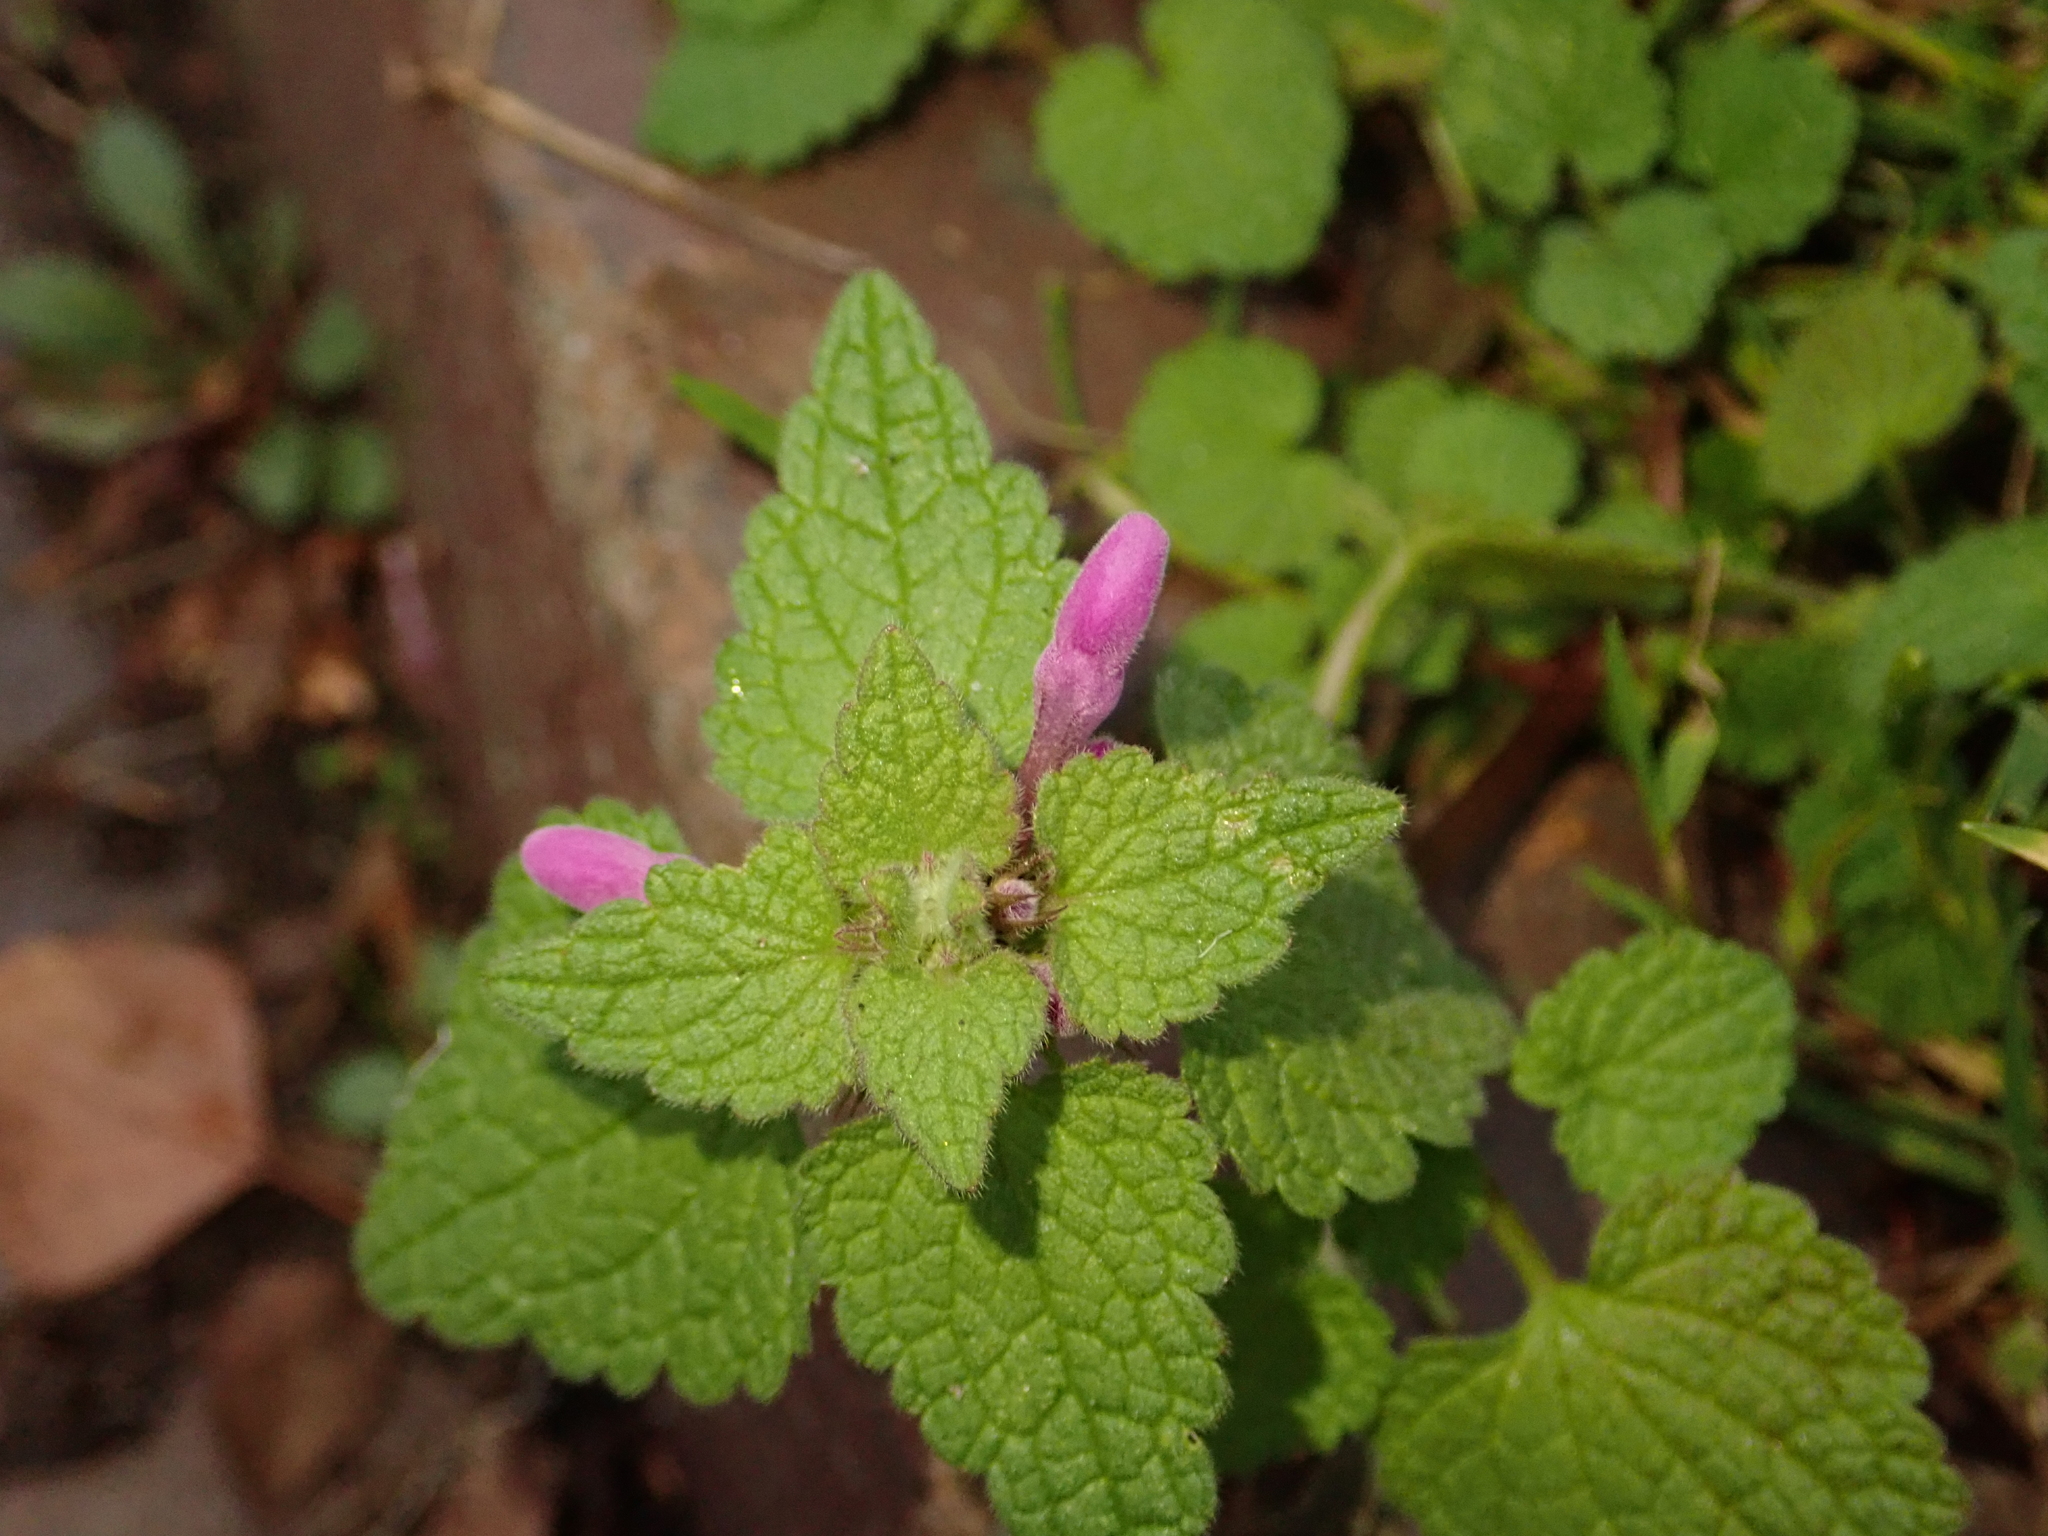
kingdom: Plantae
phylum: Tracheophyta
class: Magnoliopsida
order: Lamiales
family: Lamiaceae
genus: Lamium
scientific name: Lamium purpureum
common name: Red dead-nettle
